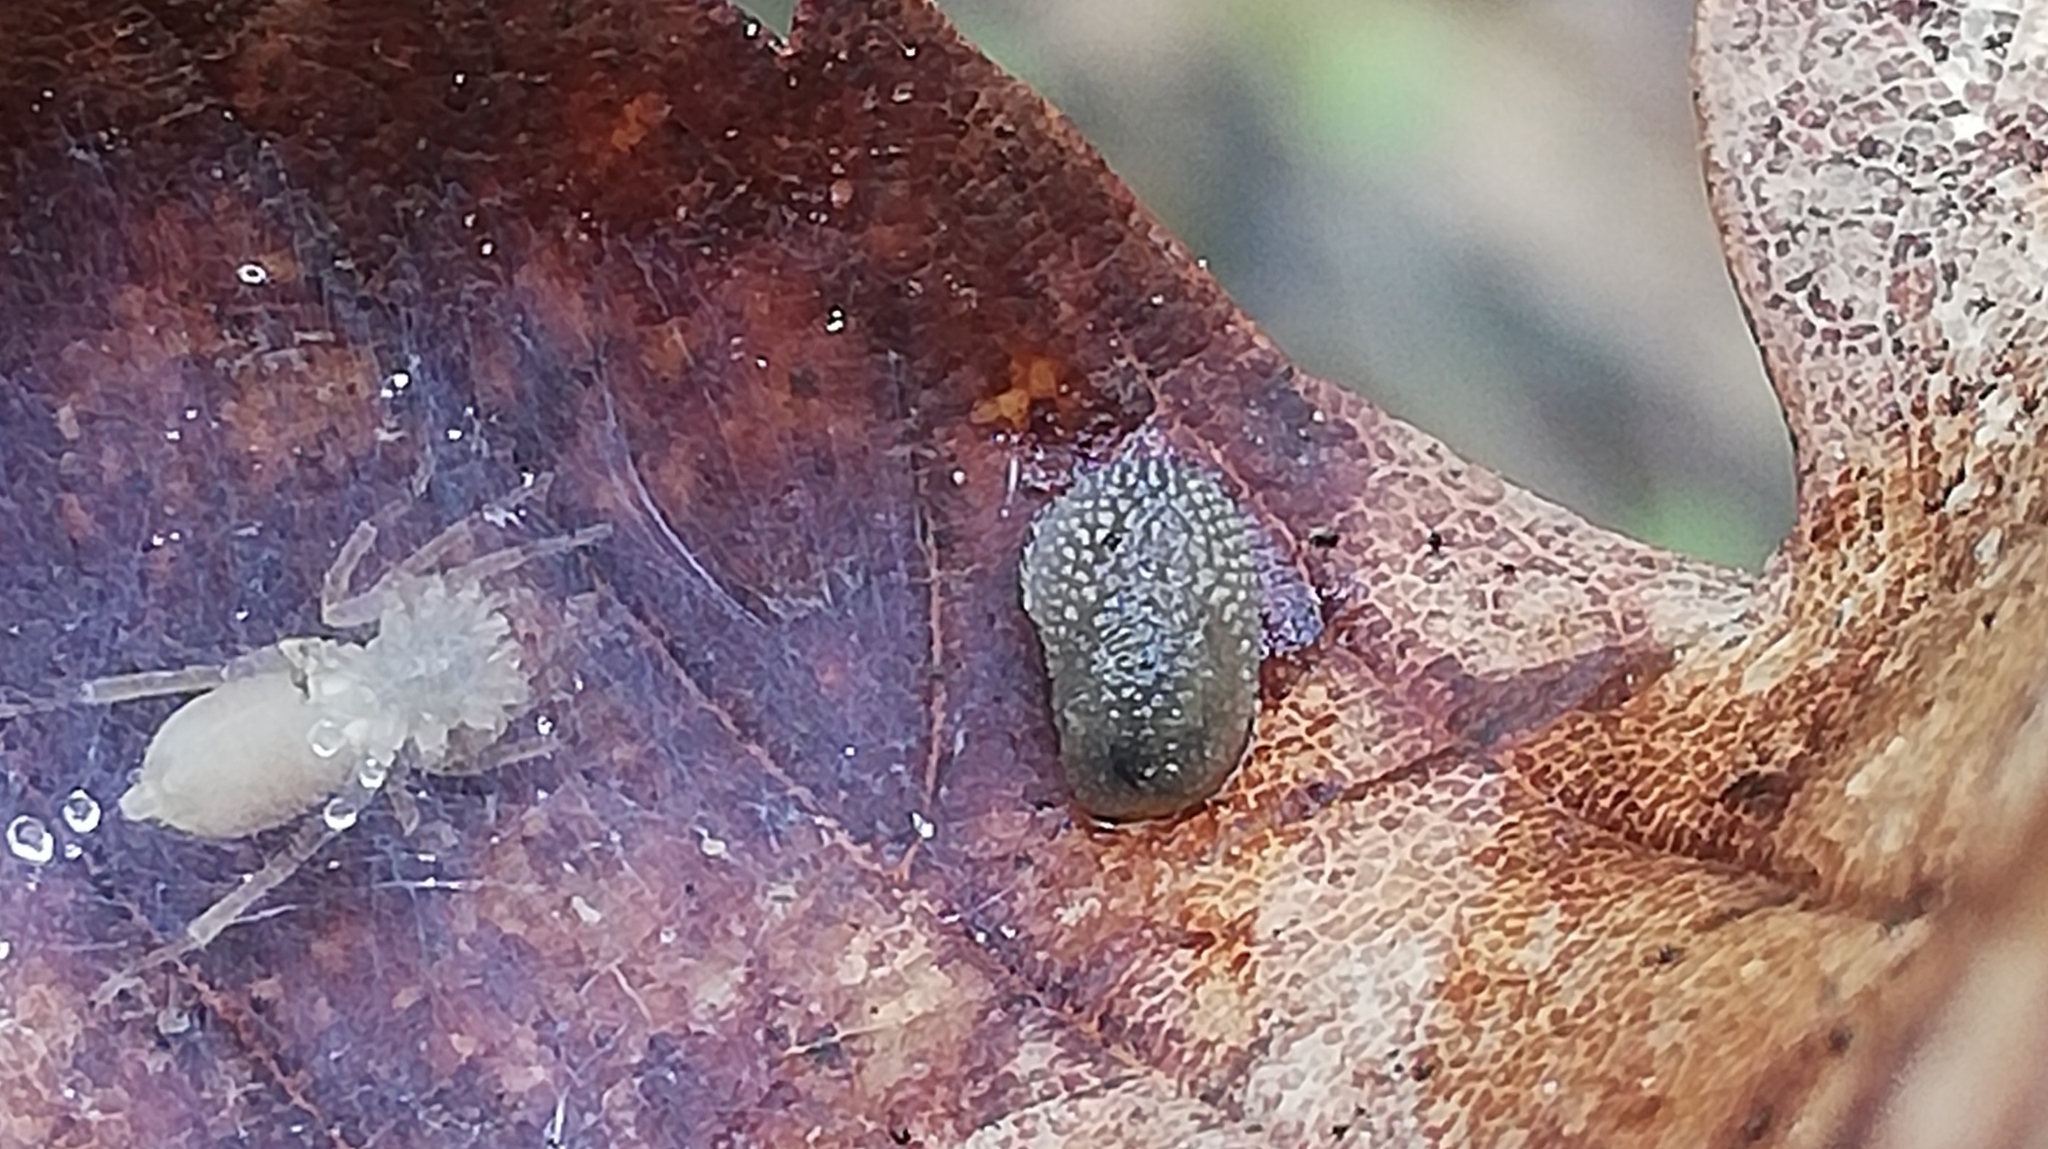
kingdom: Animalia
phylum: Mollusca
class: Gastropoda
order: Stylommatophora
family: Arionidae
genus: Arion
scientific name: Arion intermedius
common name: Hedgehog slug
